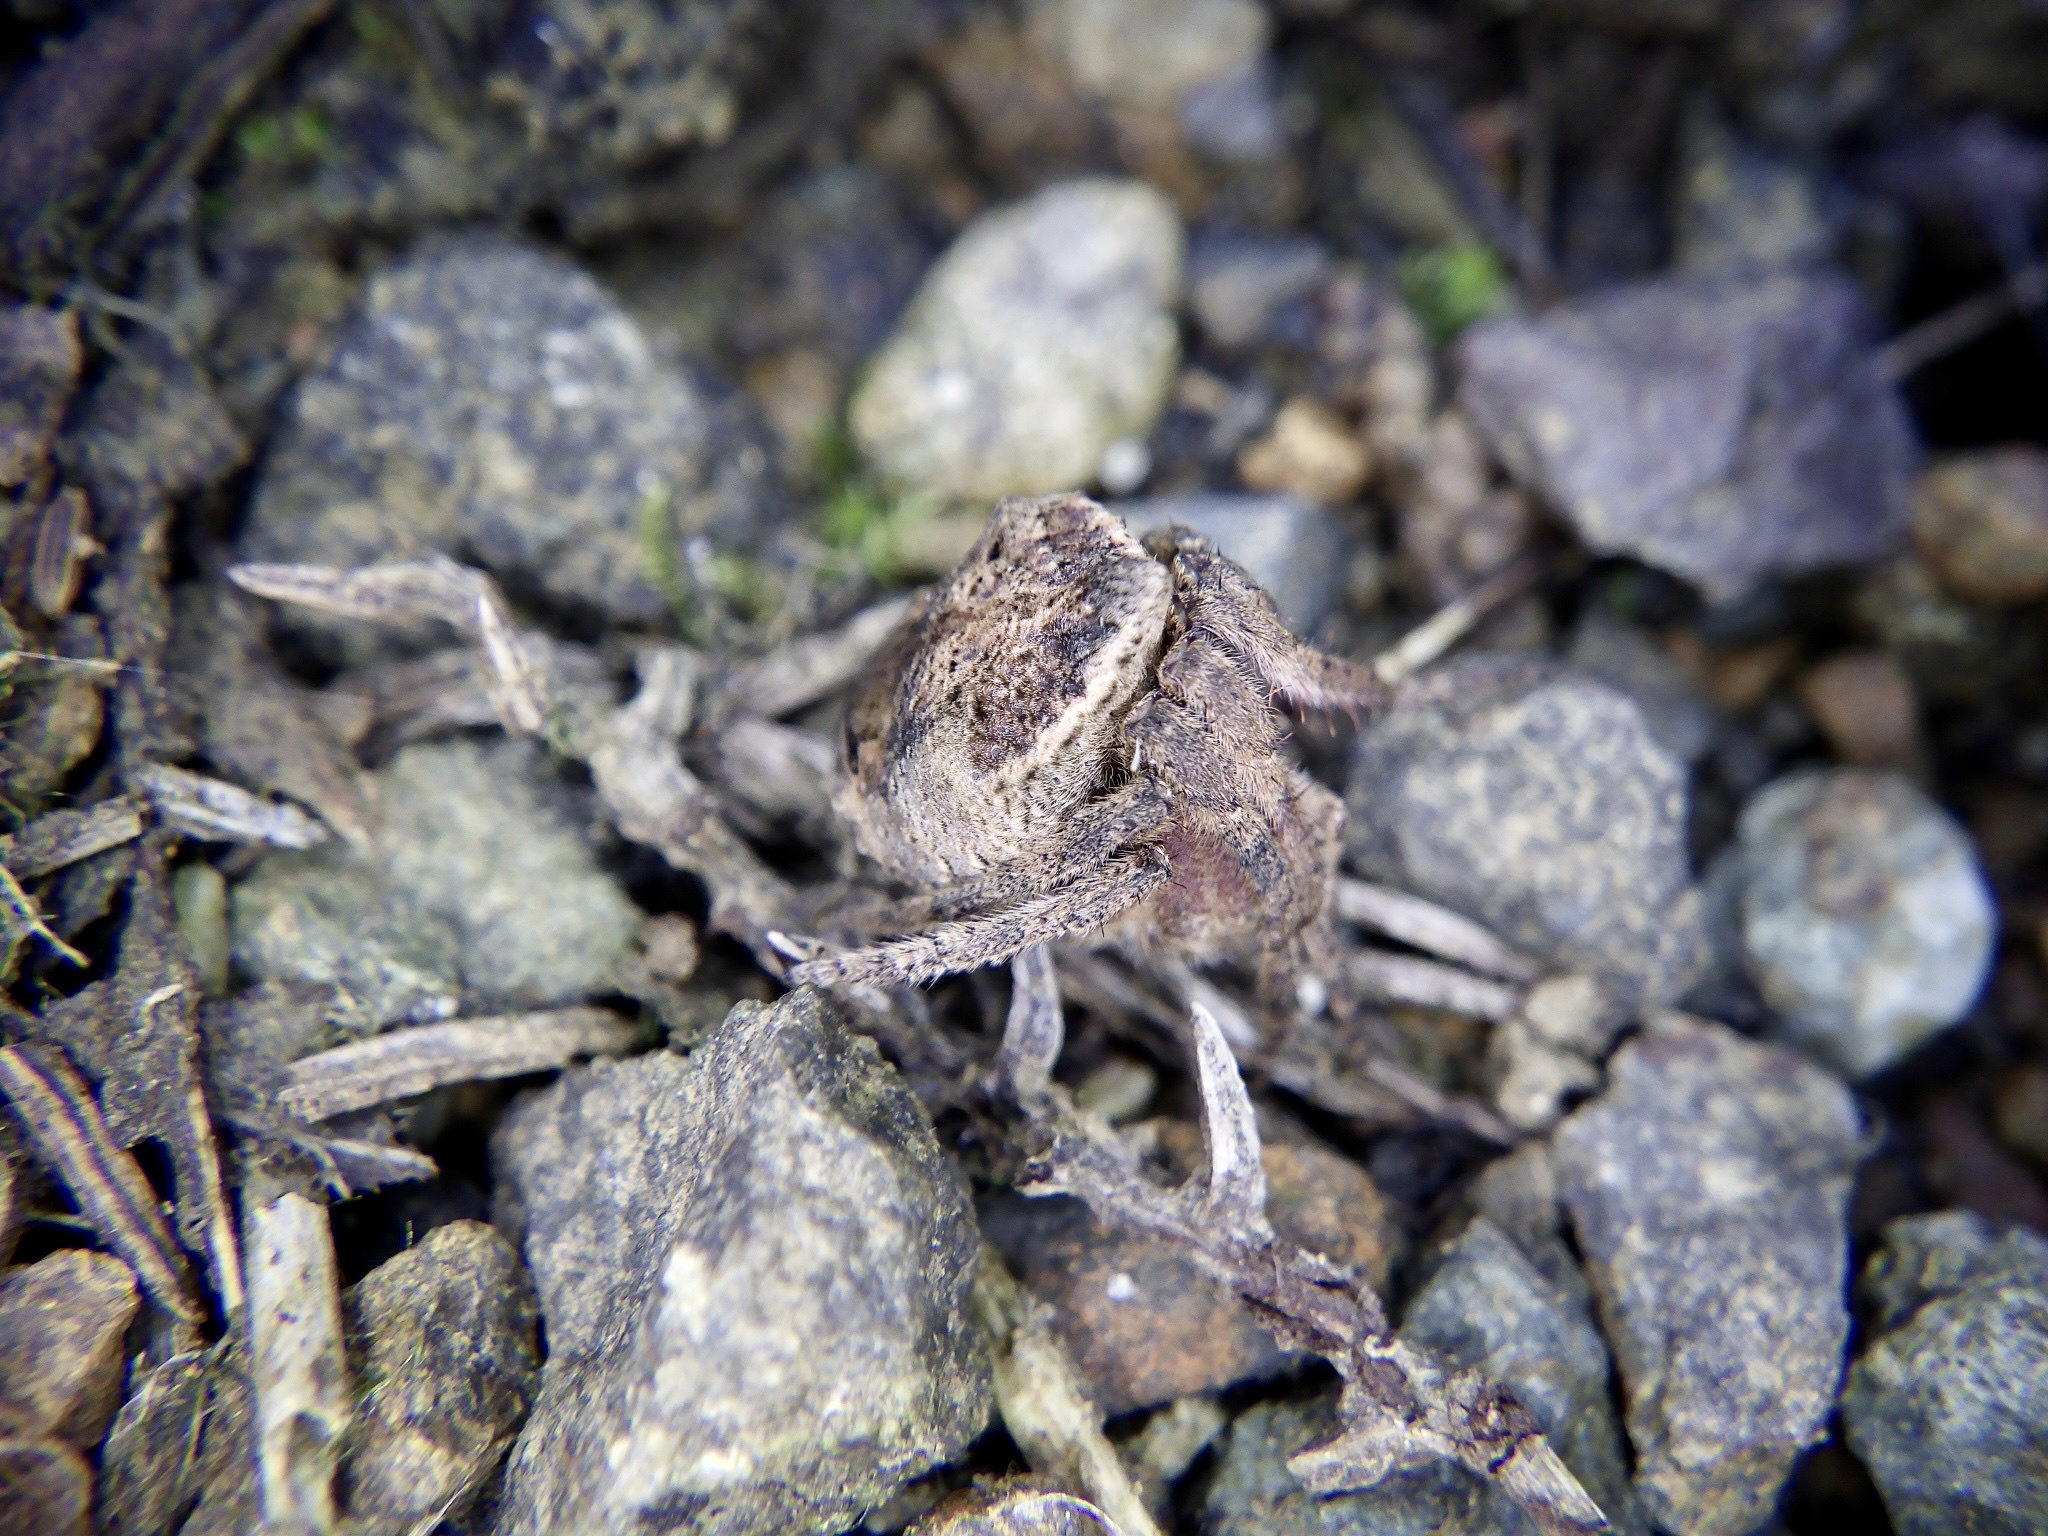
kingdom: Animalia
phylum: Arthropoda
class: Arachnida
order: Araneae
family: Araneidae
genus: Poltys
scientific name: Poltys illepidus
